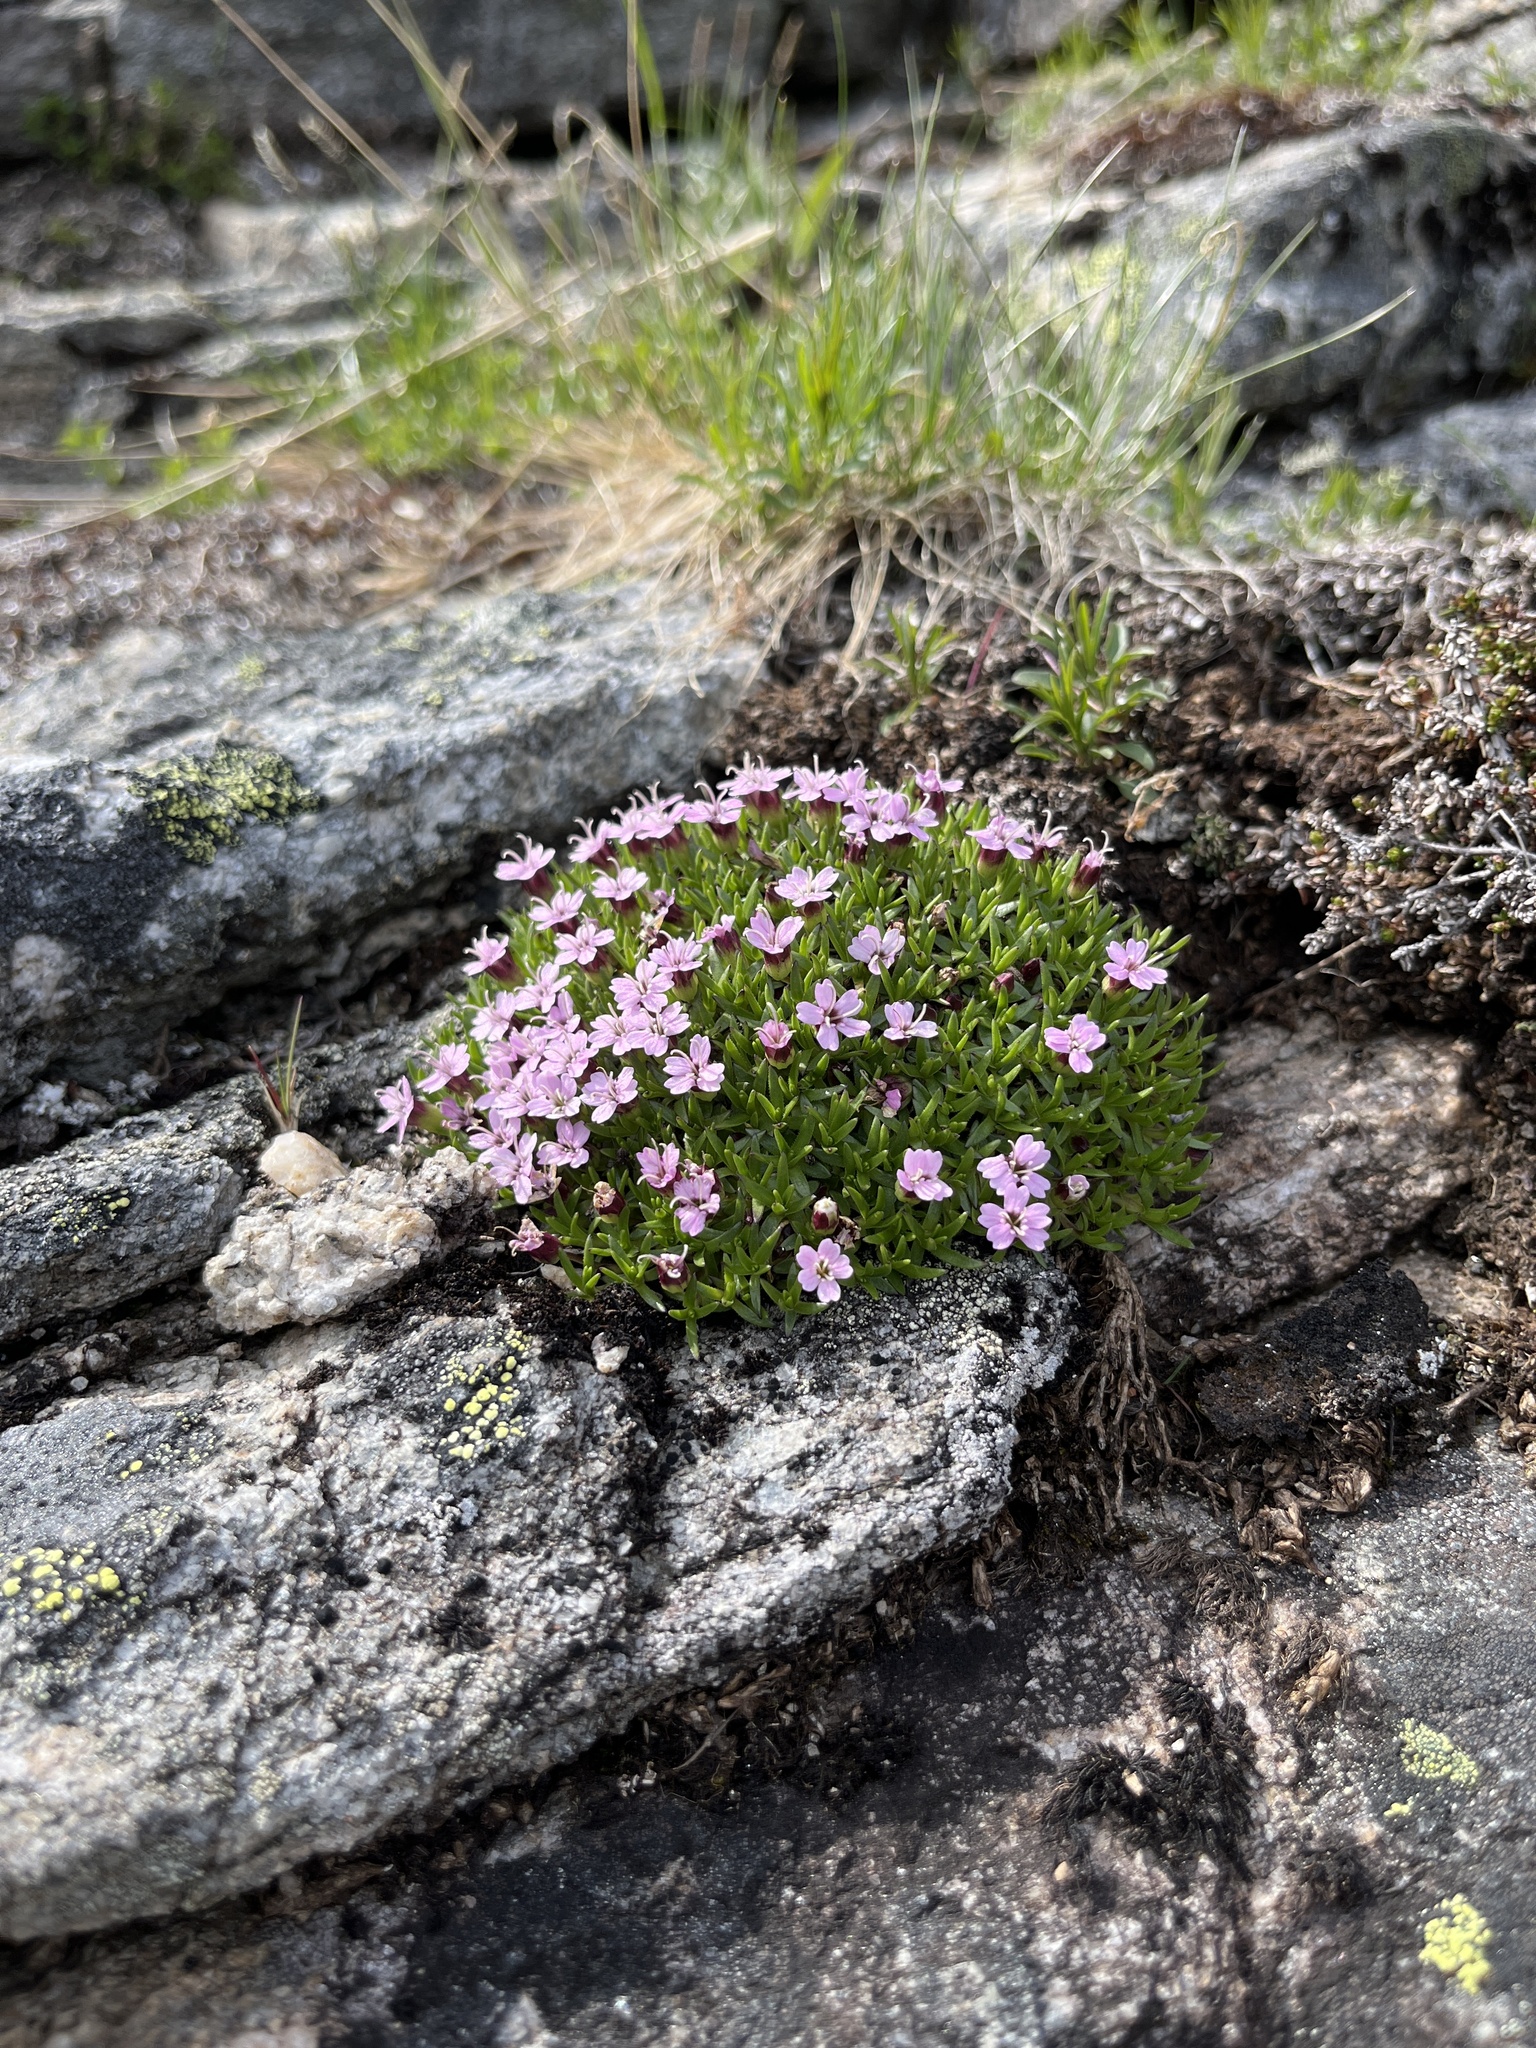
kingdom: Plantae
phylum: Tracheophyta
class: Magnoliopsida
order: Caryophyllales
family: Caryophyllaceae
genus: Silene
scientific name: Silene acaulis
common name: Moss campion
